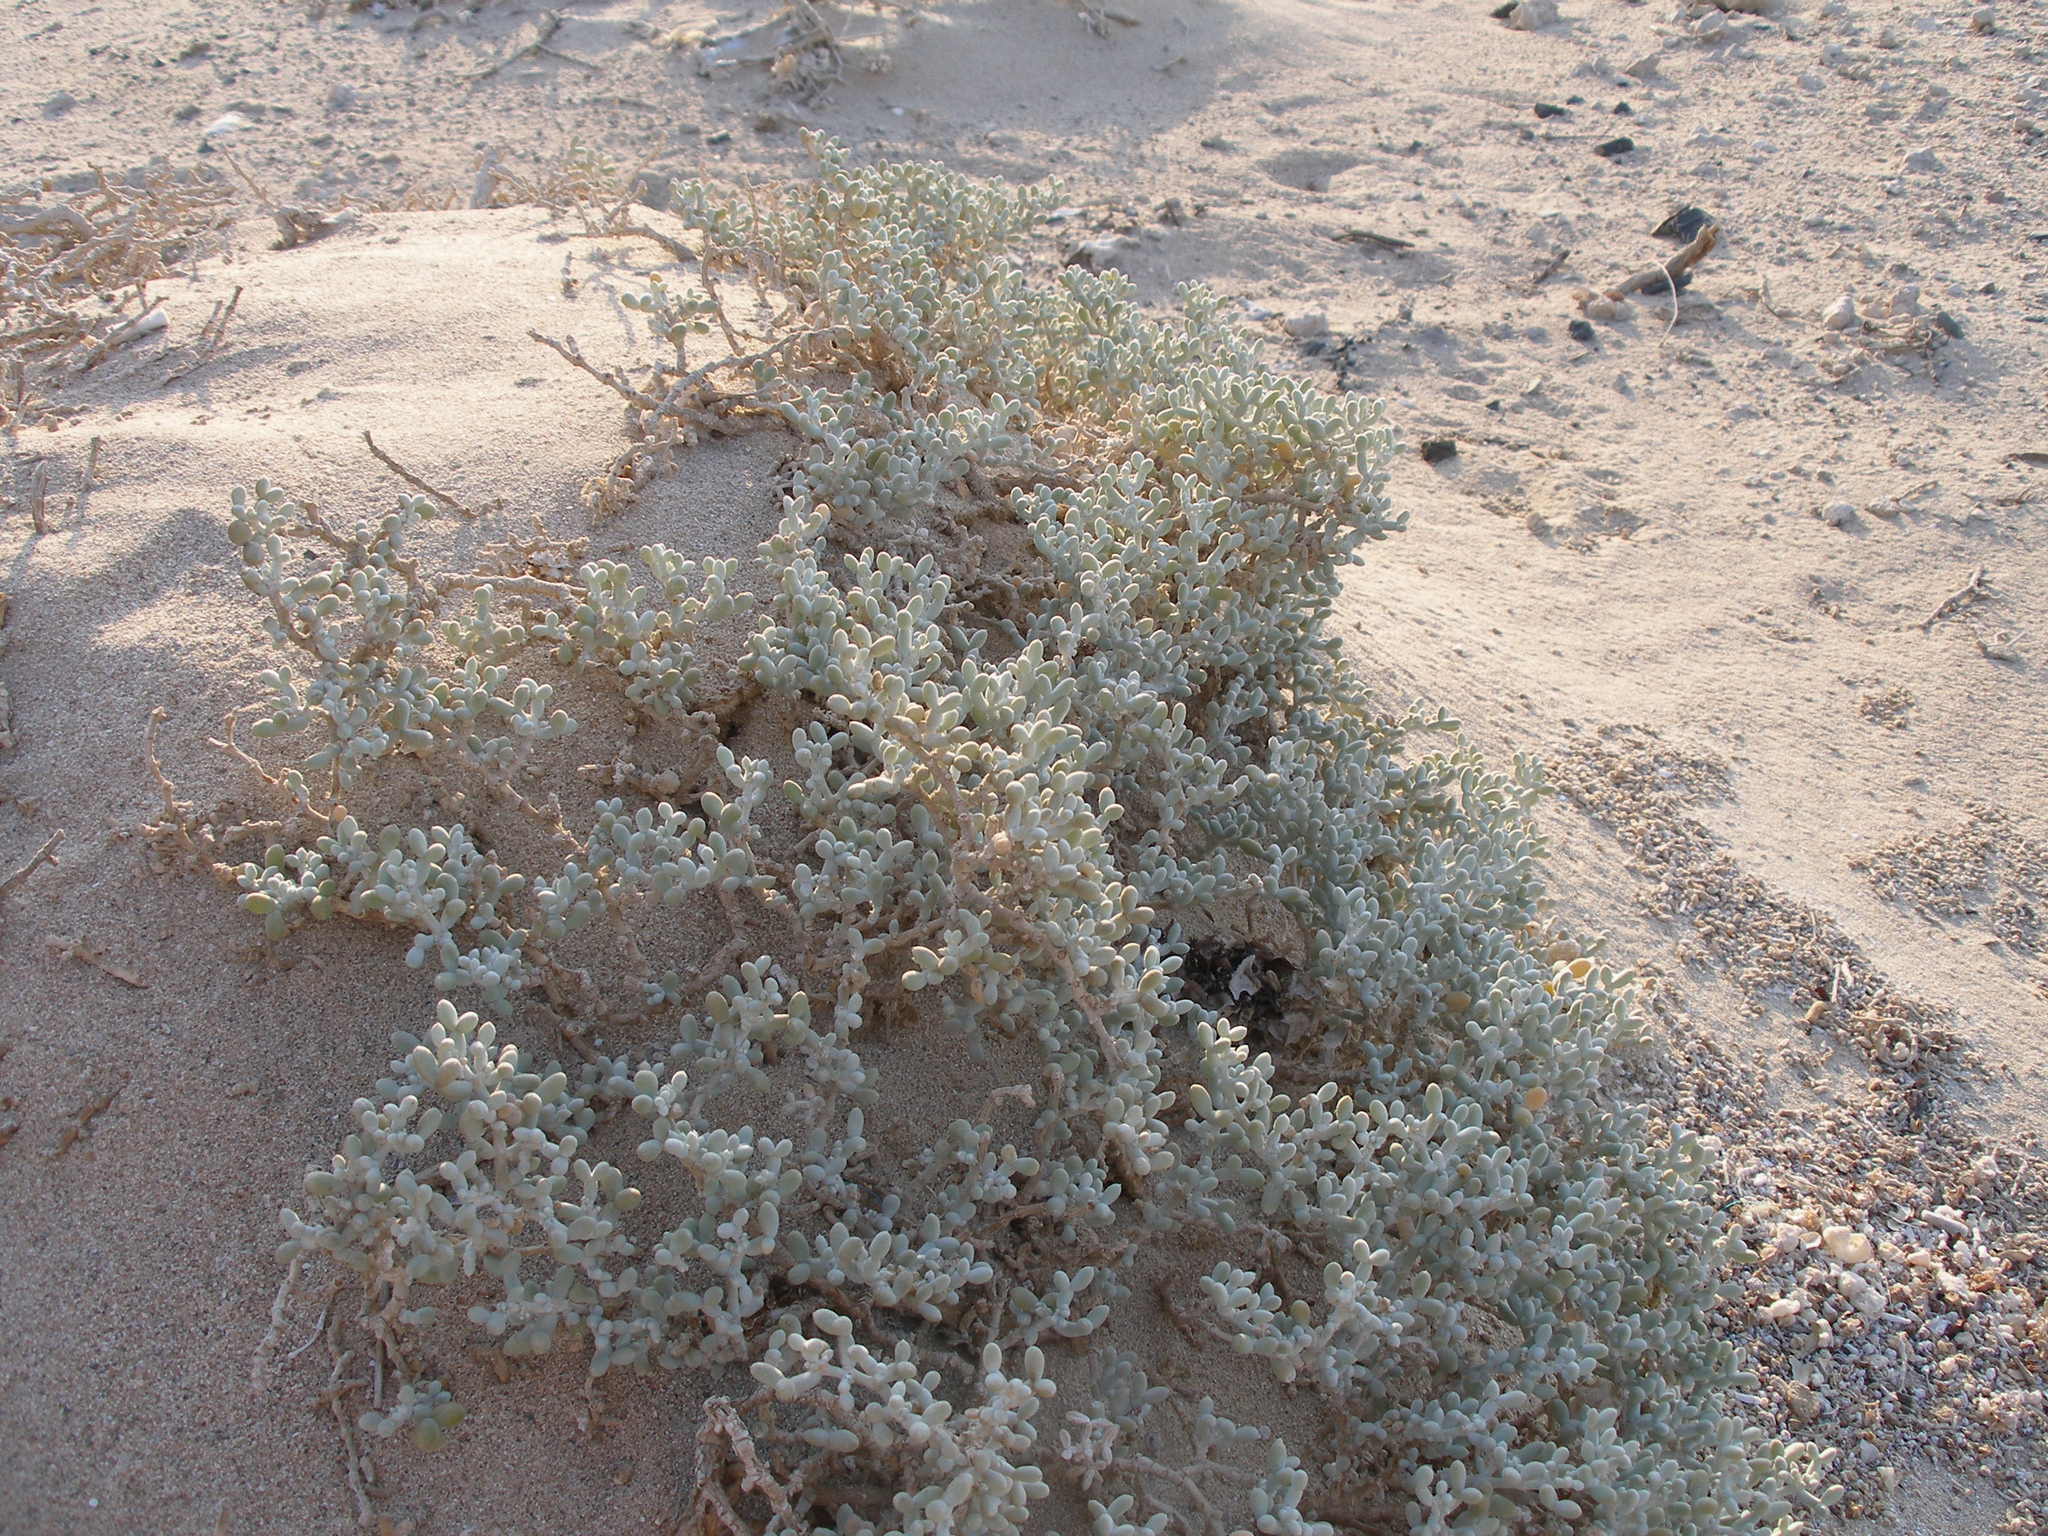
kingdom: Plantae
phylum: Tracheophyta
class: Magnoliopsida
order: Zygophyllales
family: Zygophyllaceae
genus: Tetraena
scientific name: Tetraena alba
